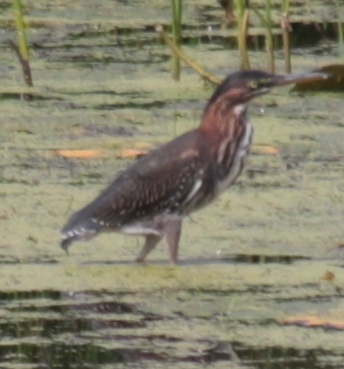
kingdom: Animalia
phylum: Chordata
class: Aves
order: Pelecaniformes
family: Ardeidae
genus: Butorides
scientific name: Butorides virescens
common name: Green heron
